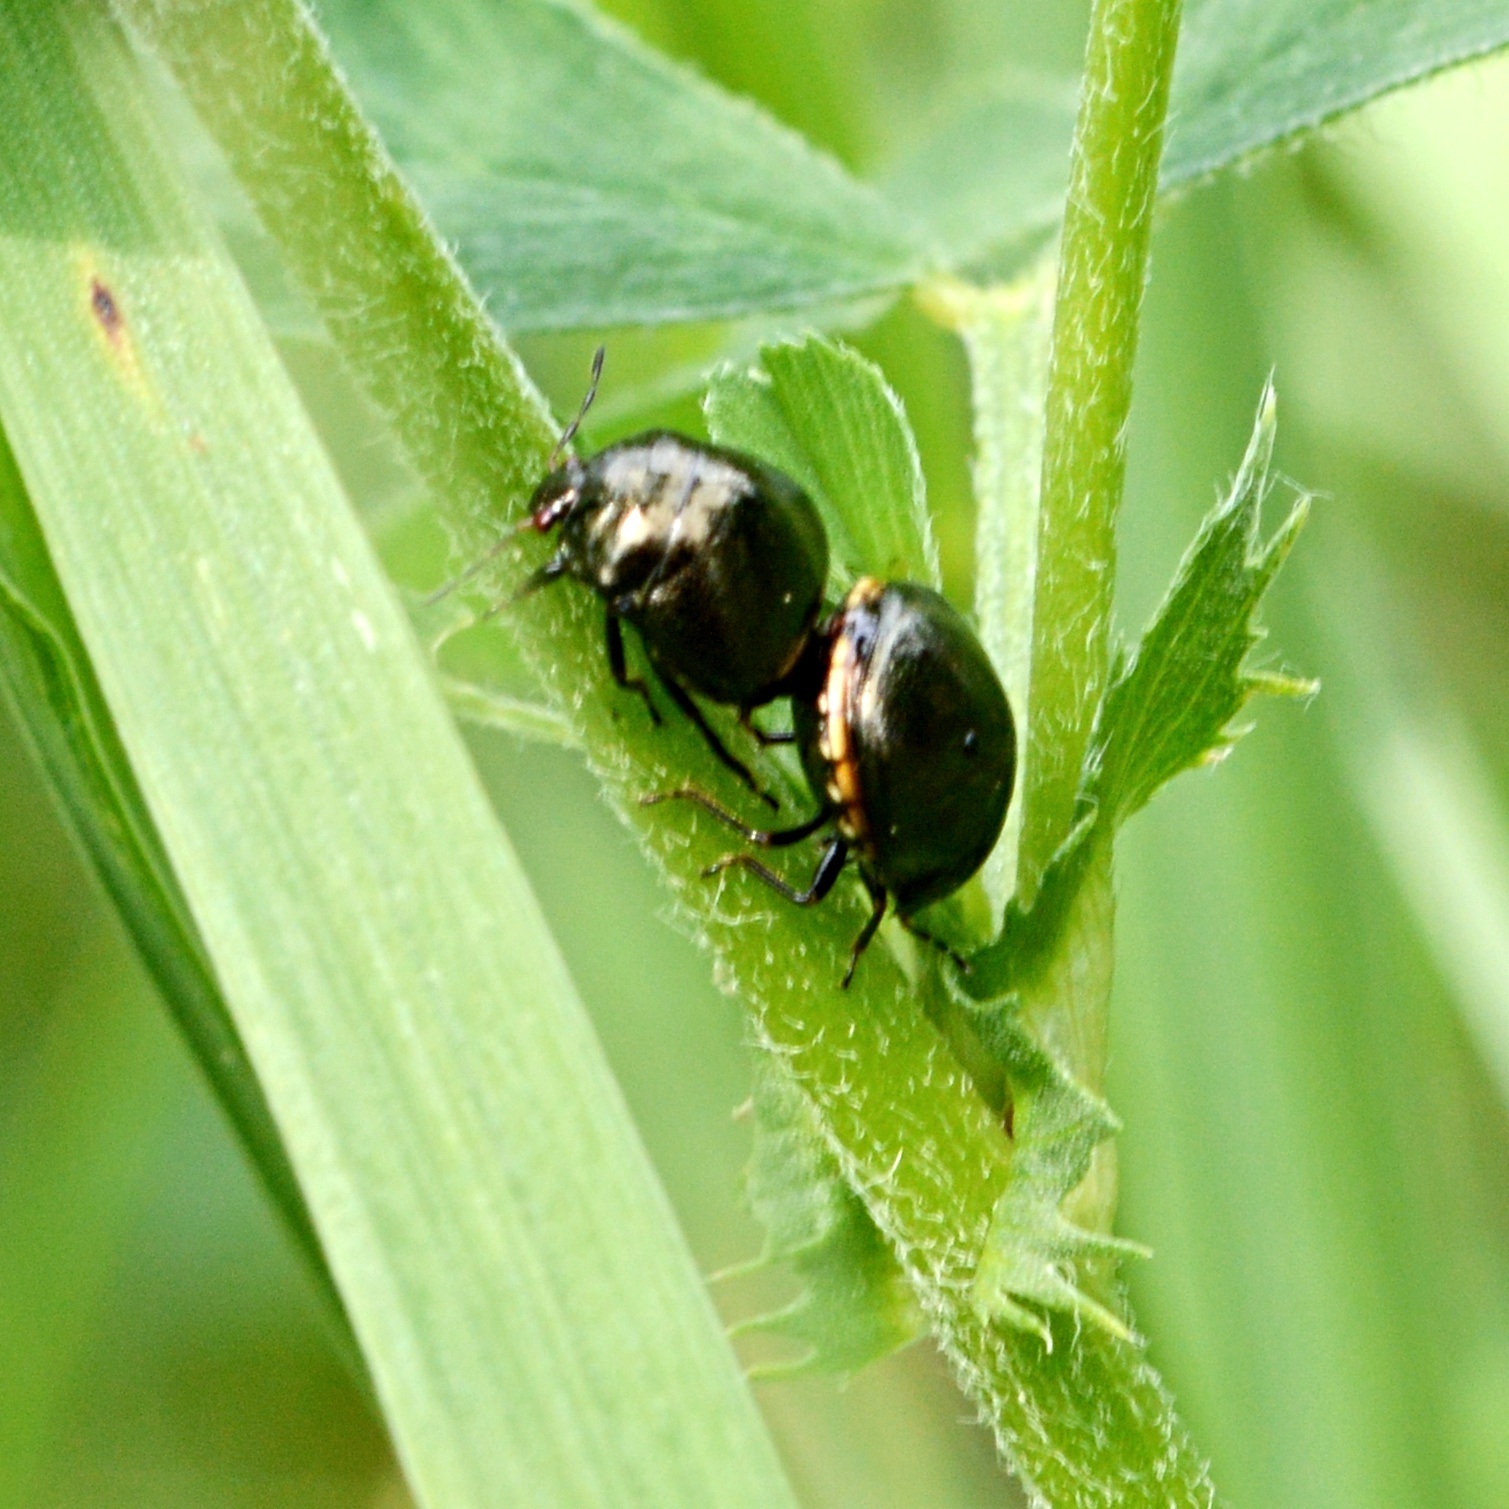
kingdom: Animalia
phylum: Arthropoda
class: Insecta
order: Hemiptera
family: Plataspidae
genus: Coptosoma
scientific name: Coptosoma scutellatum
